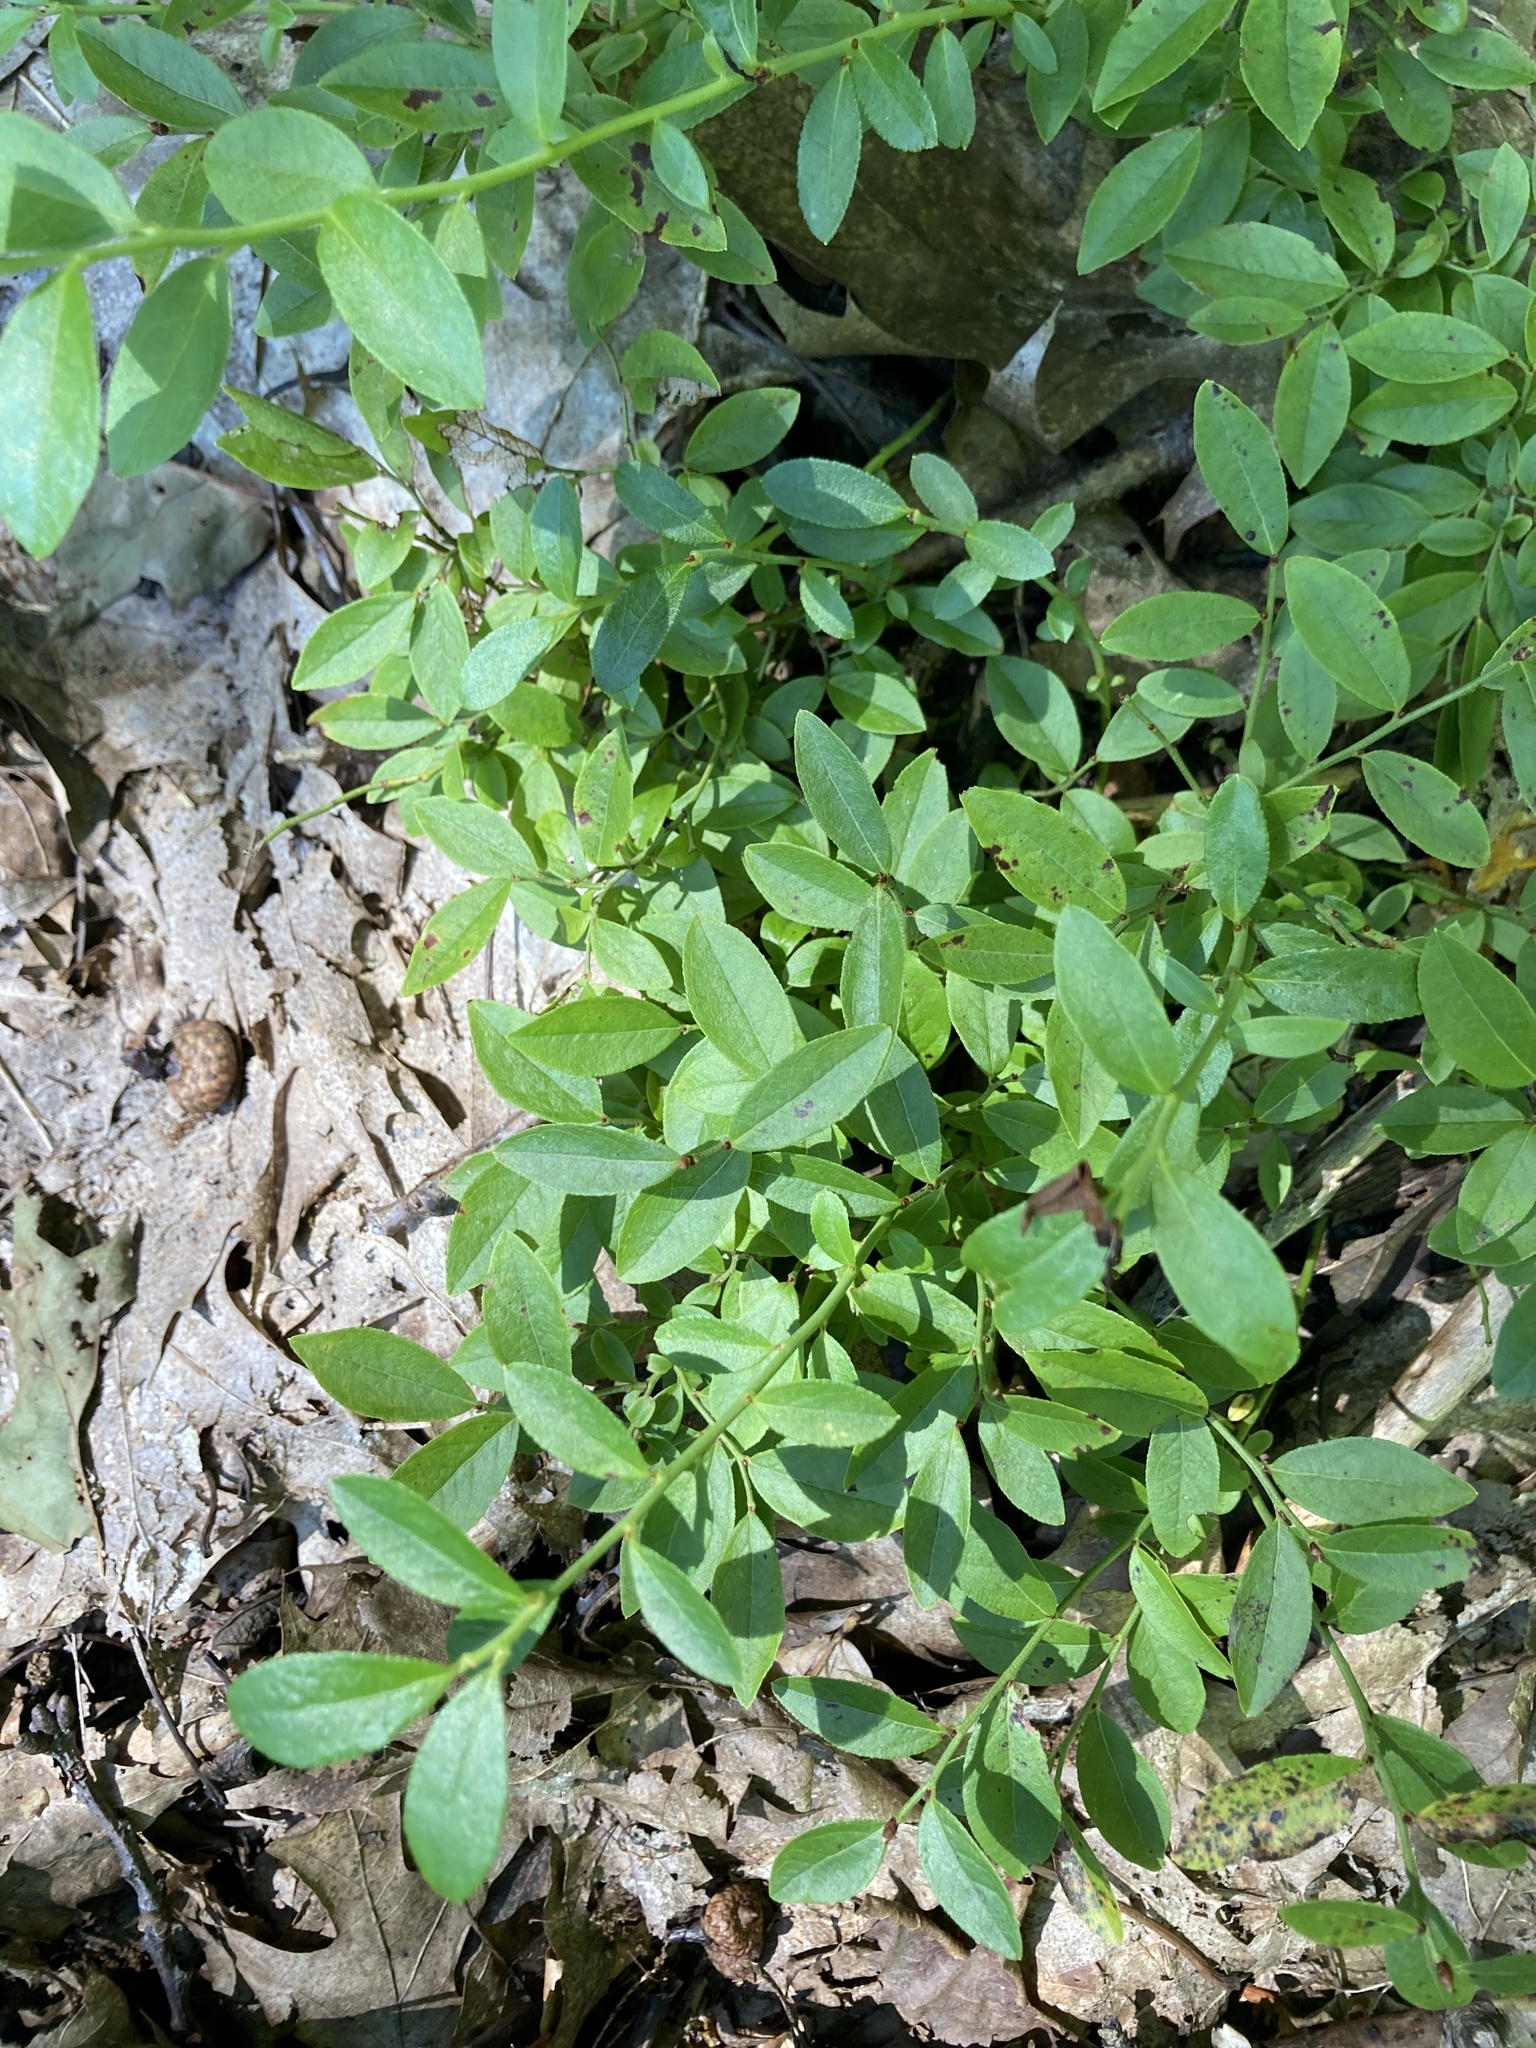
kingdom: Plantae
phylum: Tracheophyta
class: Magnoliopsida
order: Ericales
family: Ericaceae
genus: Kalmia
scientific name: Kalmia latifolia
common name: Mountain-laurel
